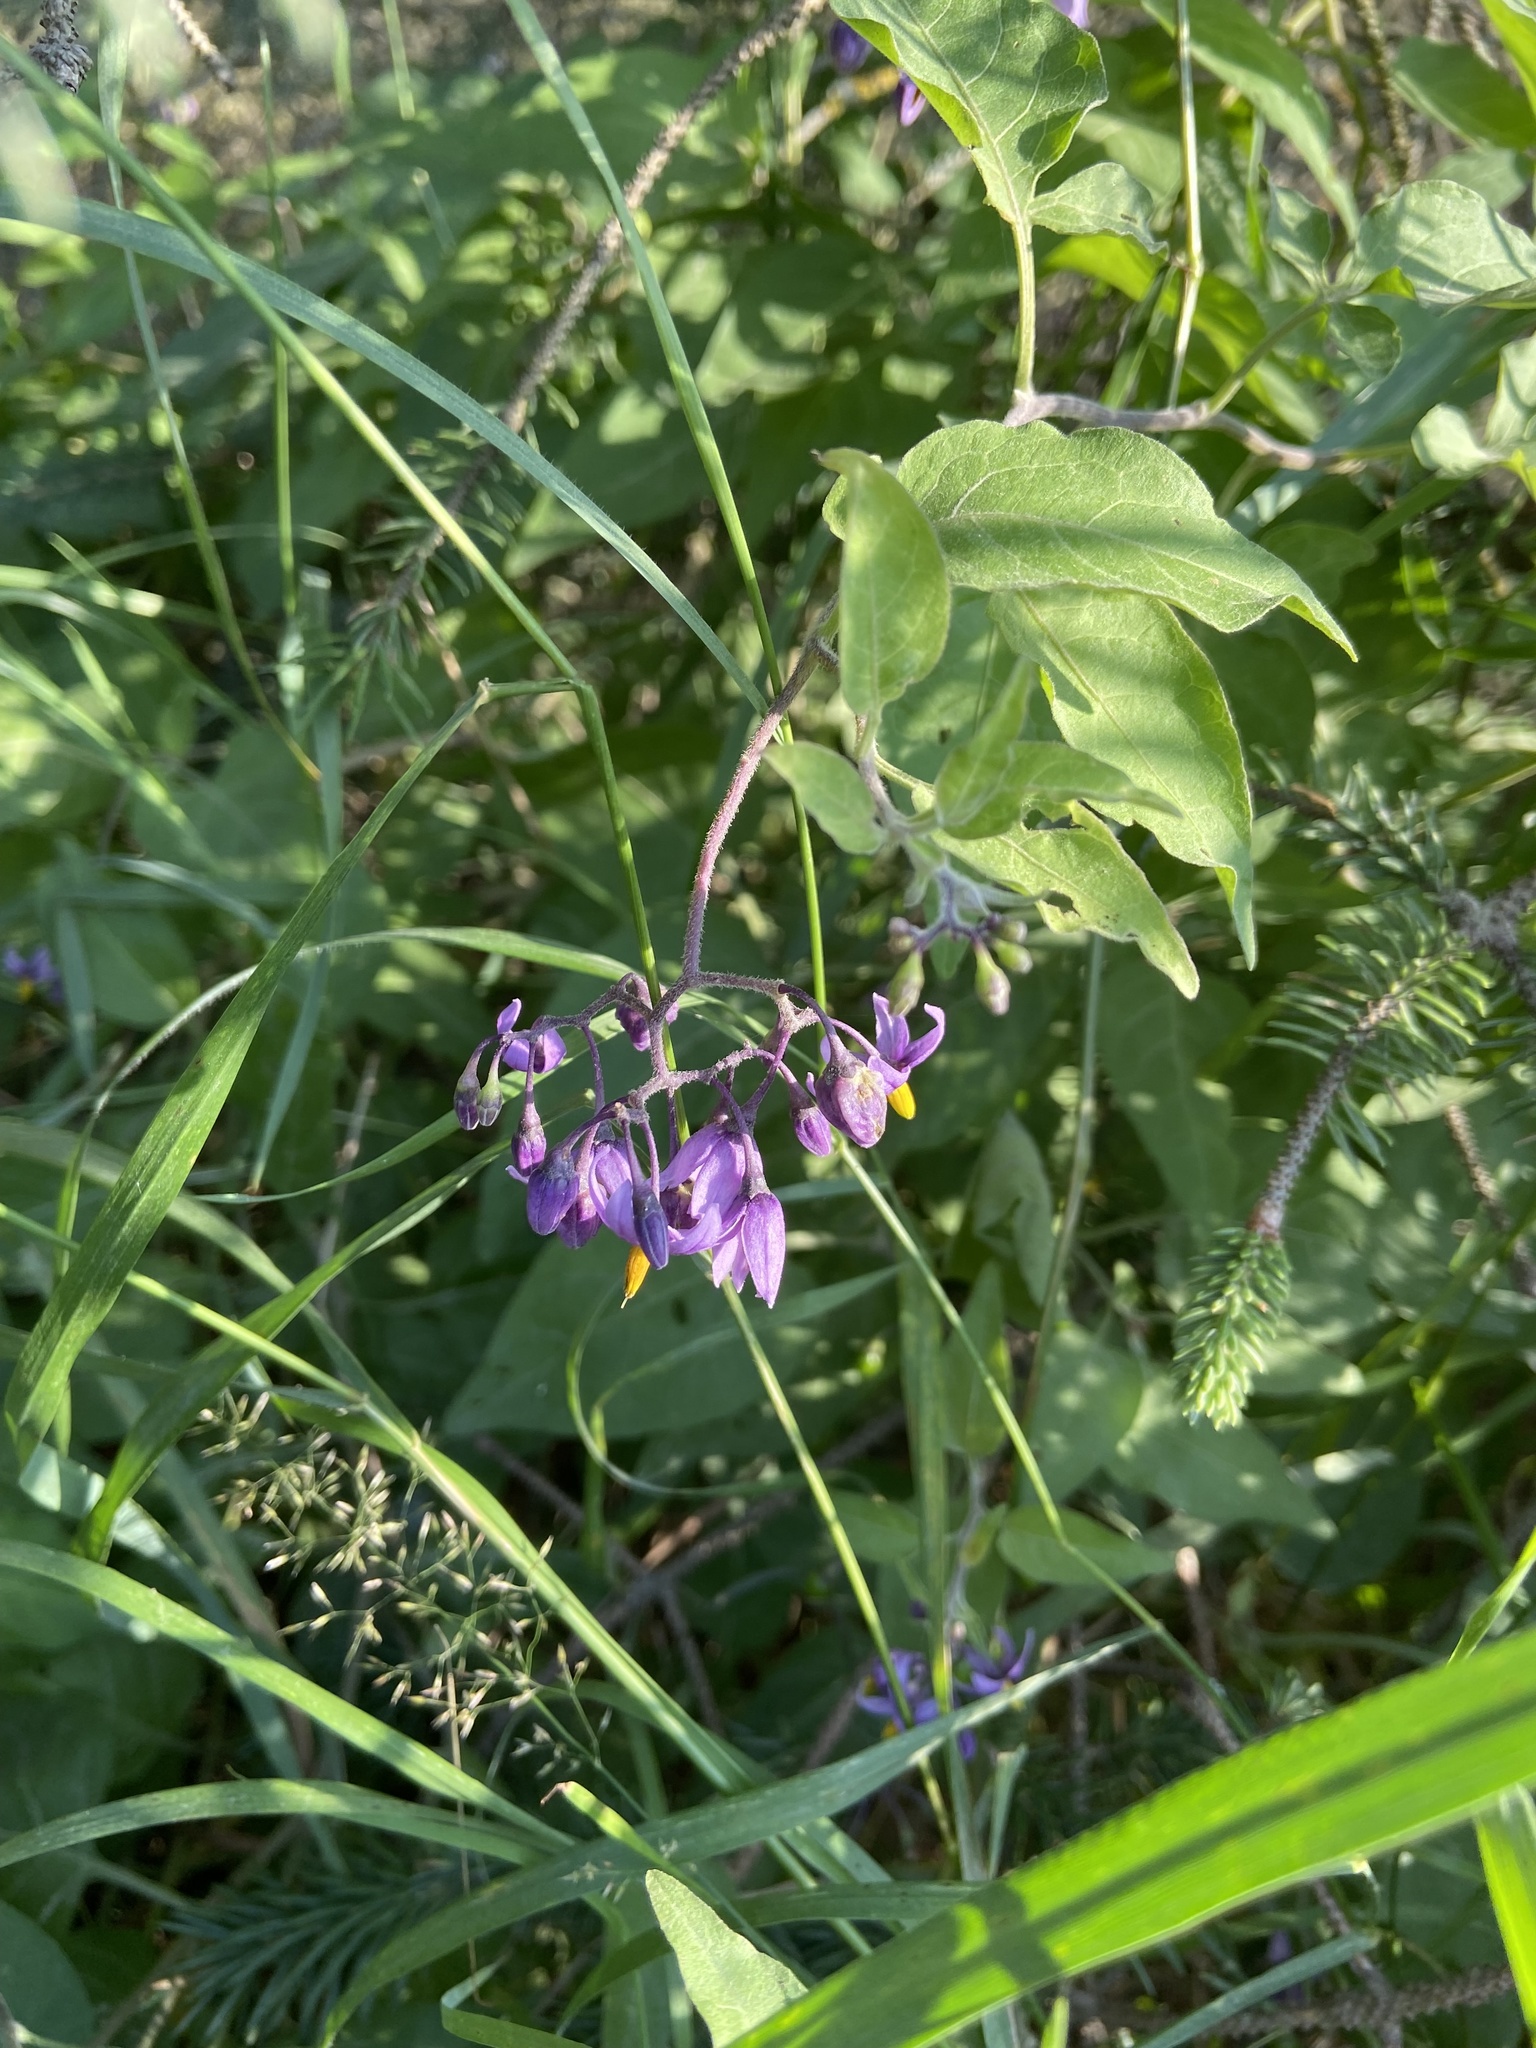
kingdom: Plantae
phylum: Tracheophyta
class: Magnoliopsida
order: Solanales
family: Solanaceae
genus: Solanum
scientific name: Solanum dulcamara
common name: Climbing nightshade
